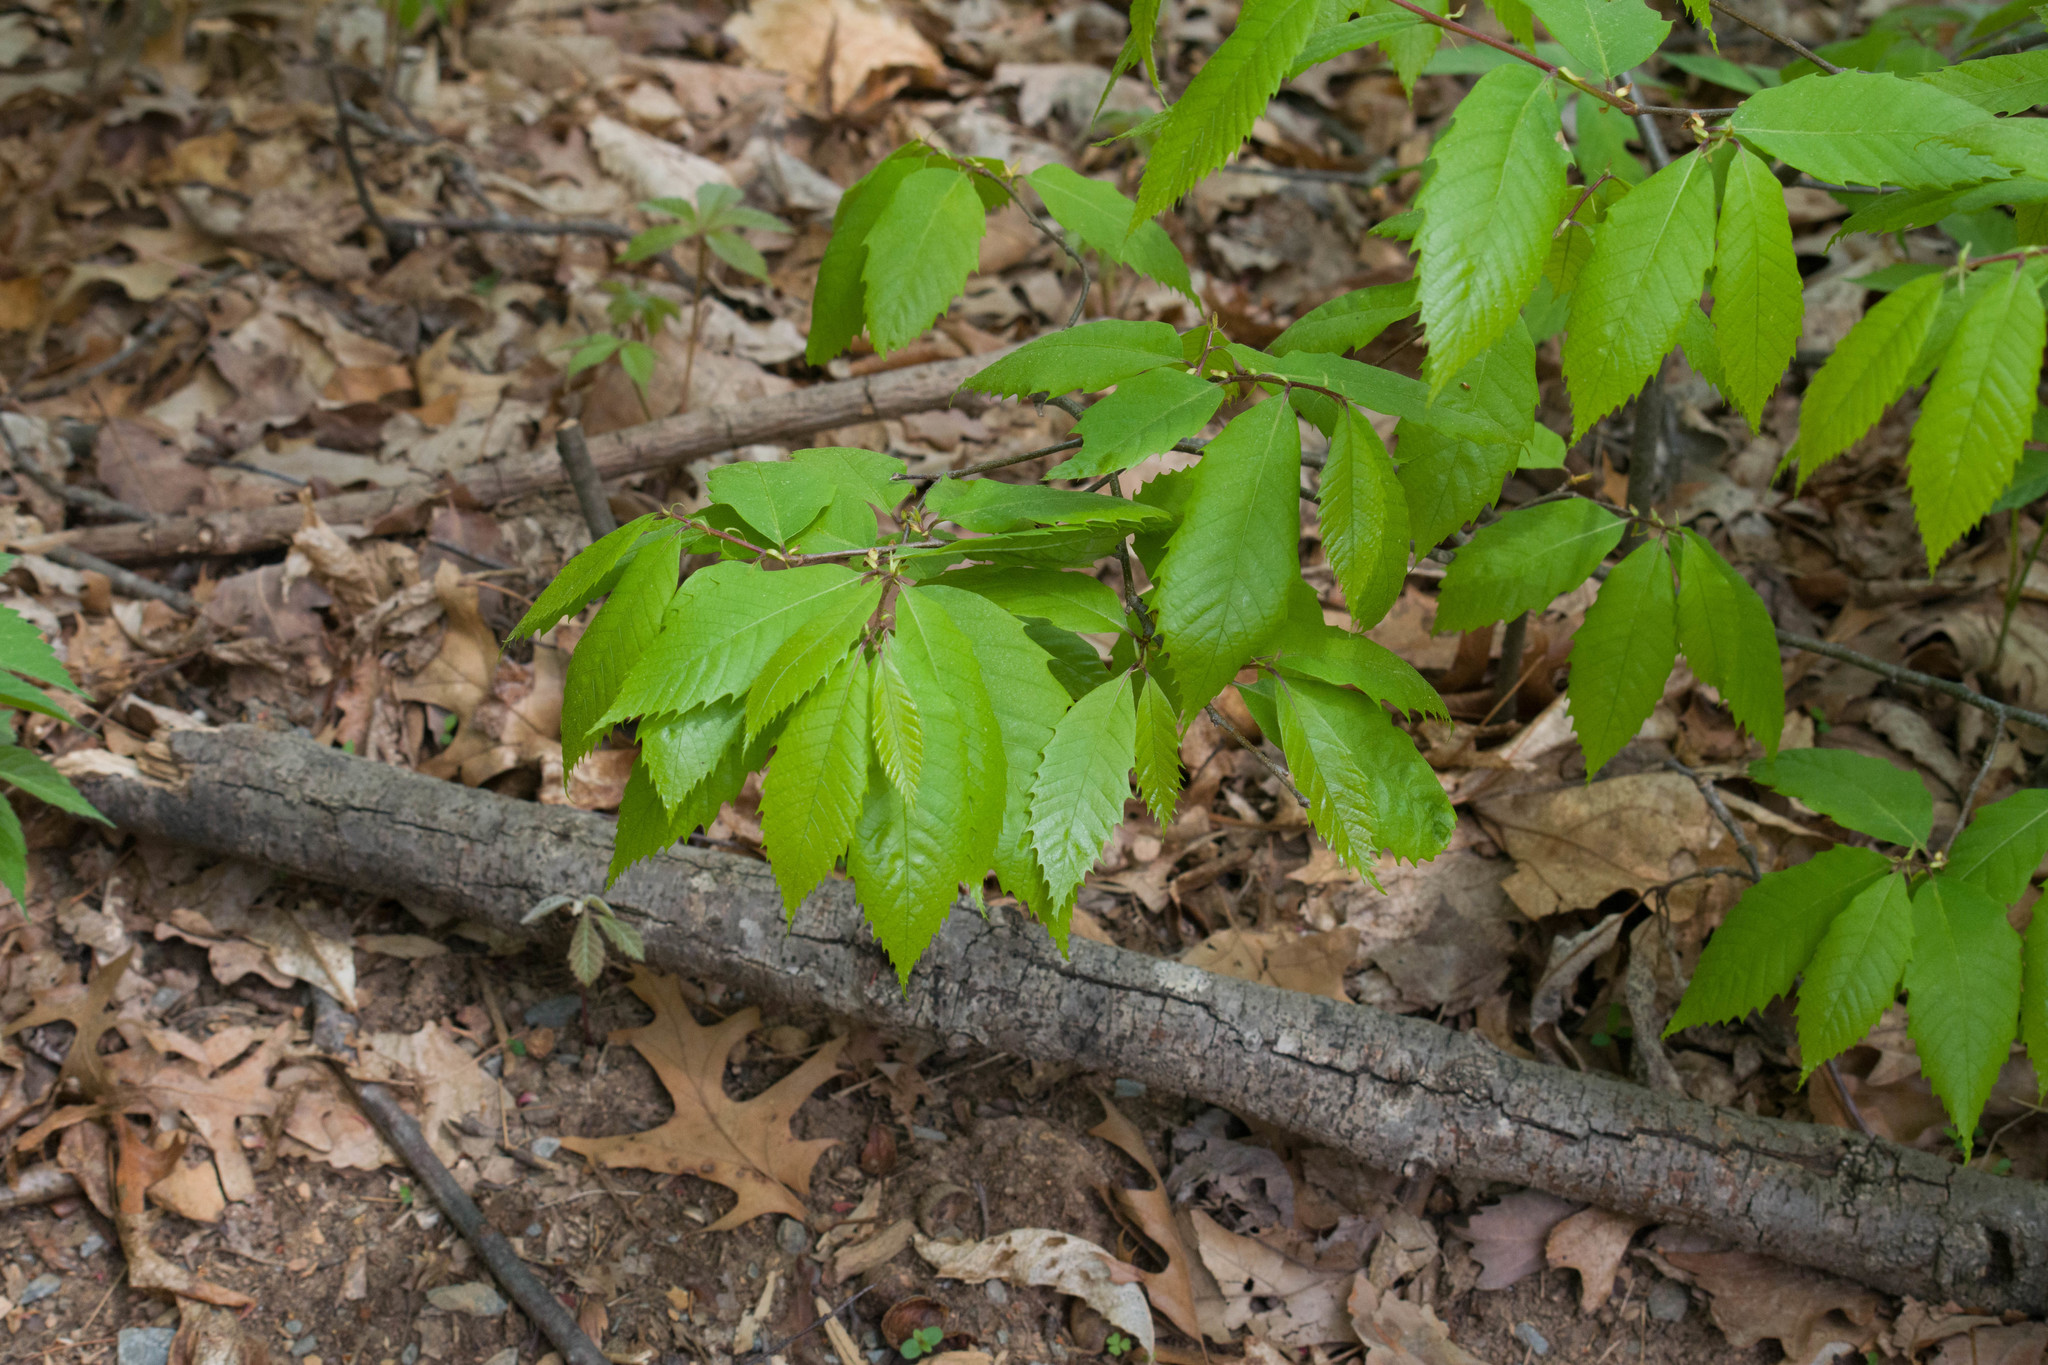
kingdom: Plantae
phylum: Tracheophyta
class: Magnoliopsida
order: Fagales
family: Fagaceae
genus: Castanea
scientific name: Castanea dentata
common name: American chestnut
